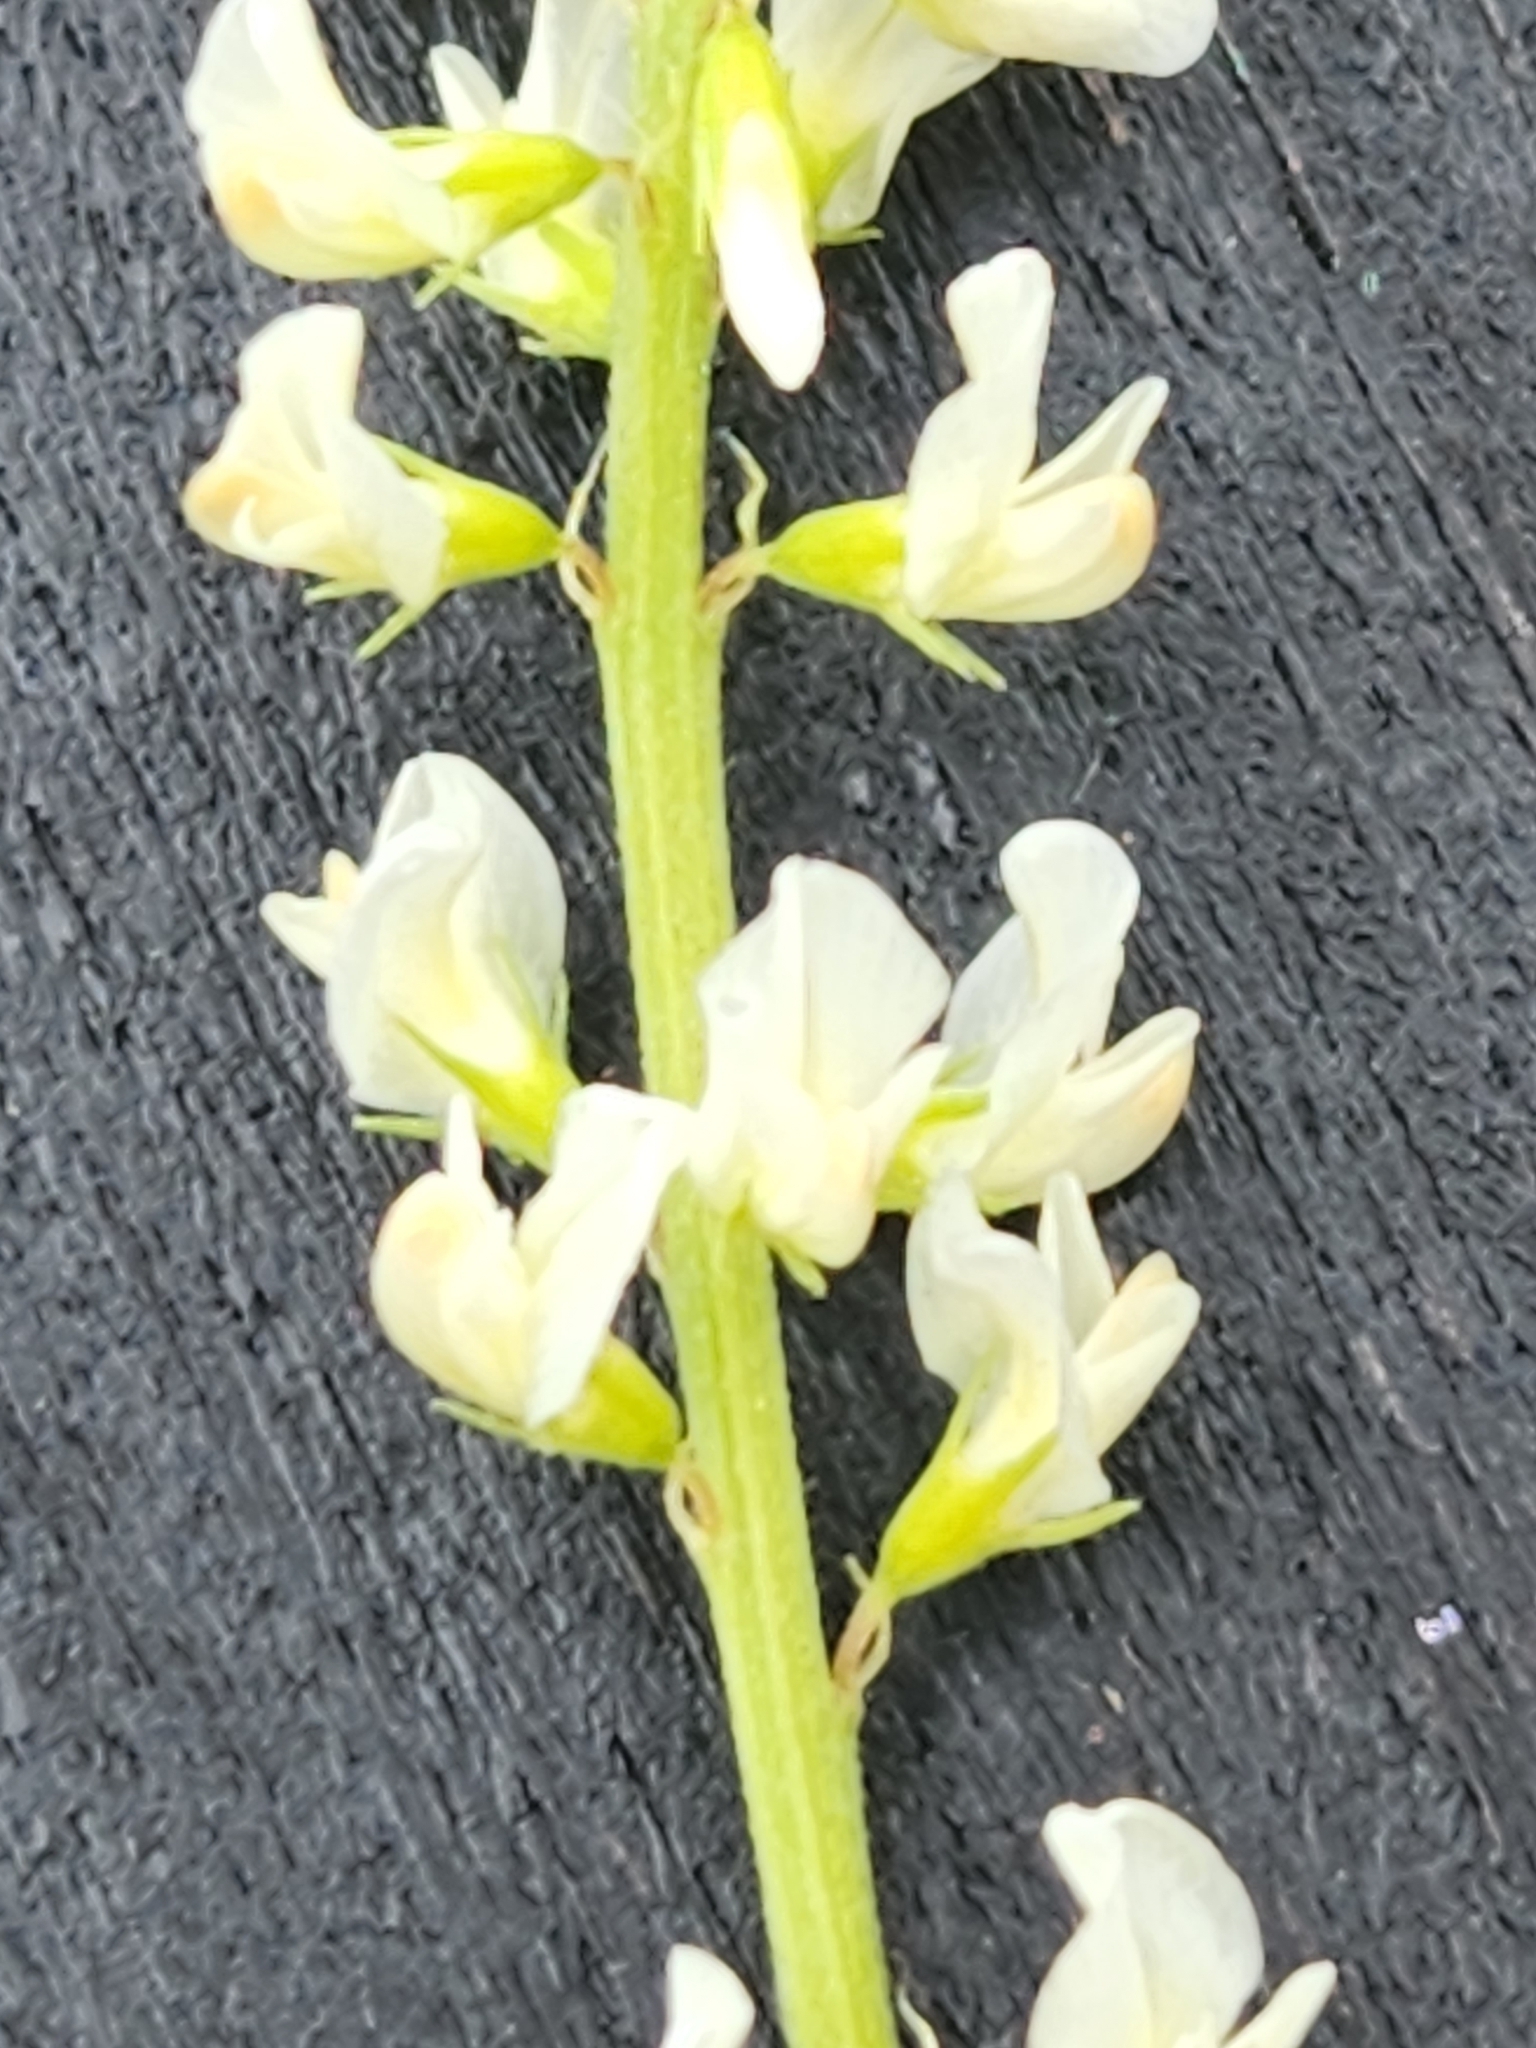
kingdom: Plantae
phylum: Tracheophyta
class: Magnoliopsida
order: Fabales
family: Fabaceae
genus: Melilotus
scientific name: Melilotus albus
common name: White melilot
